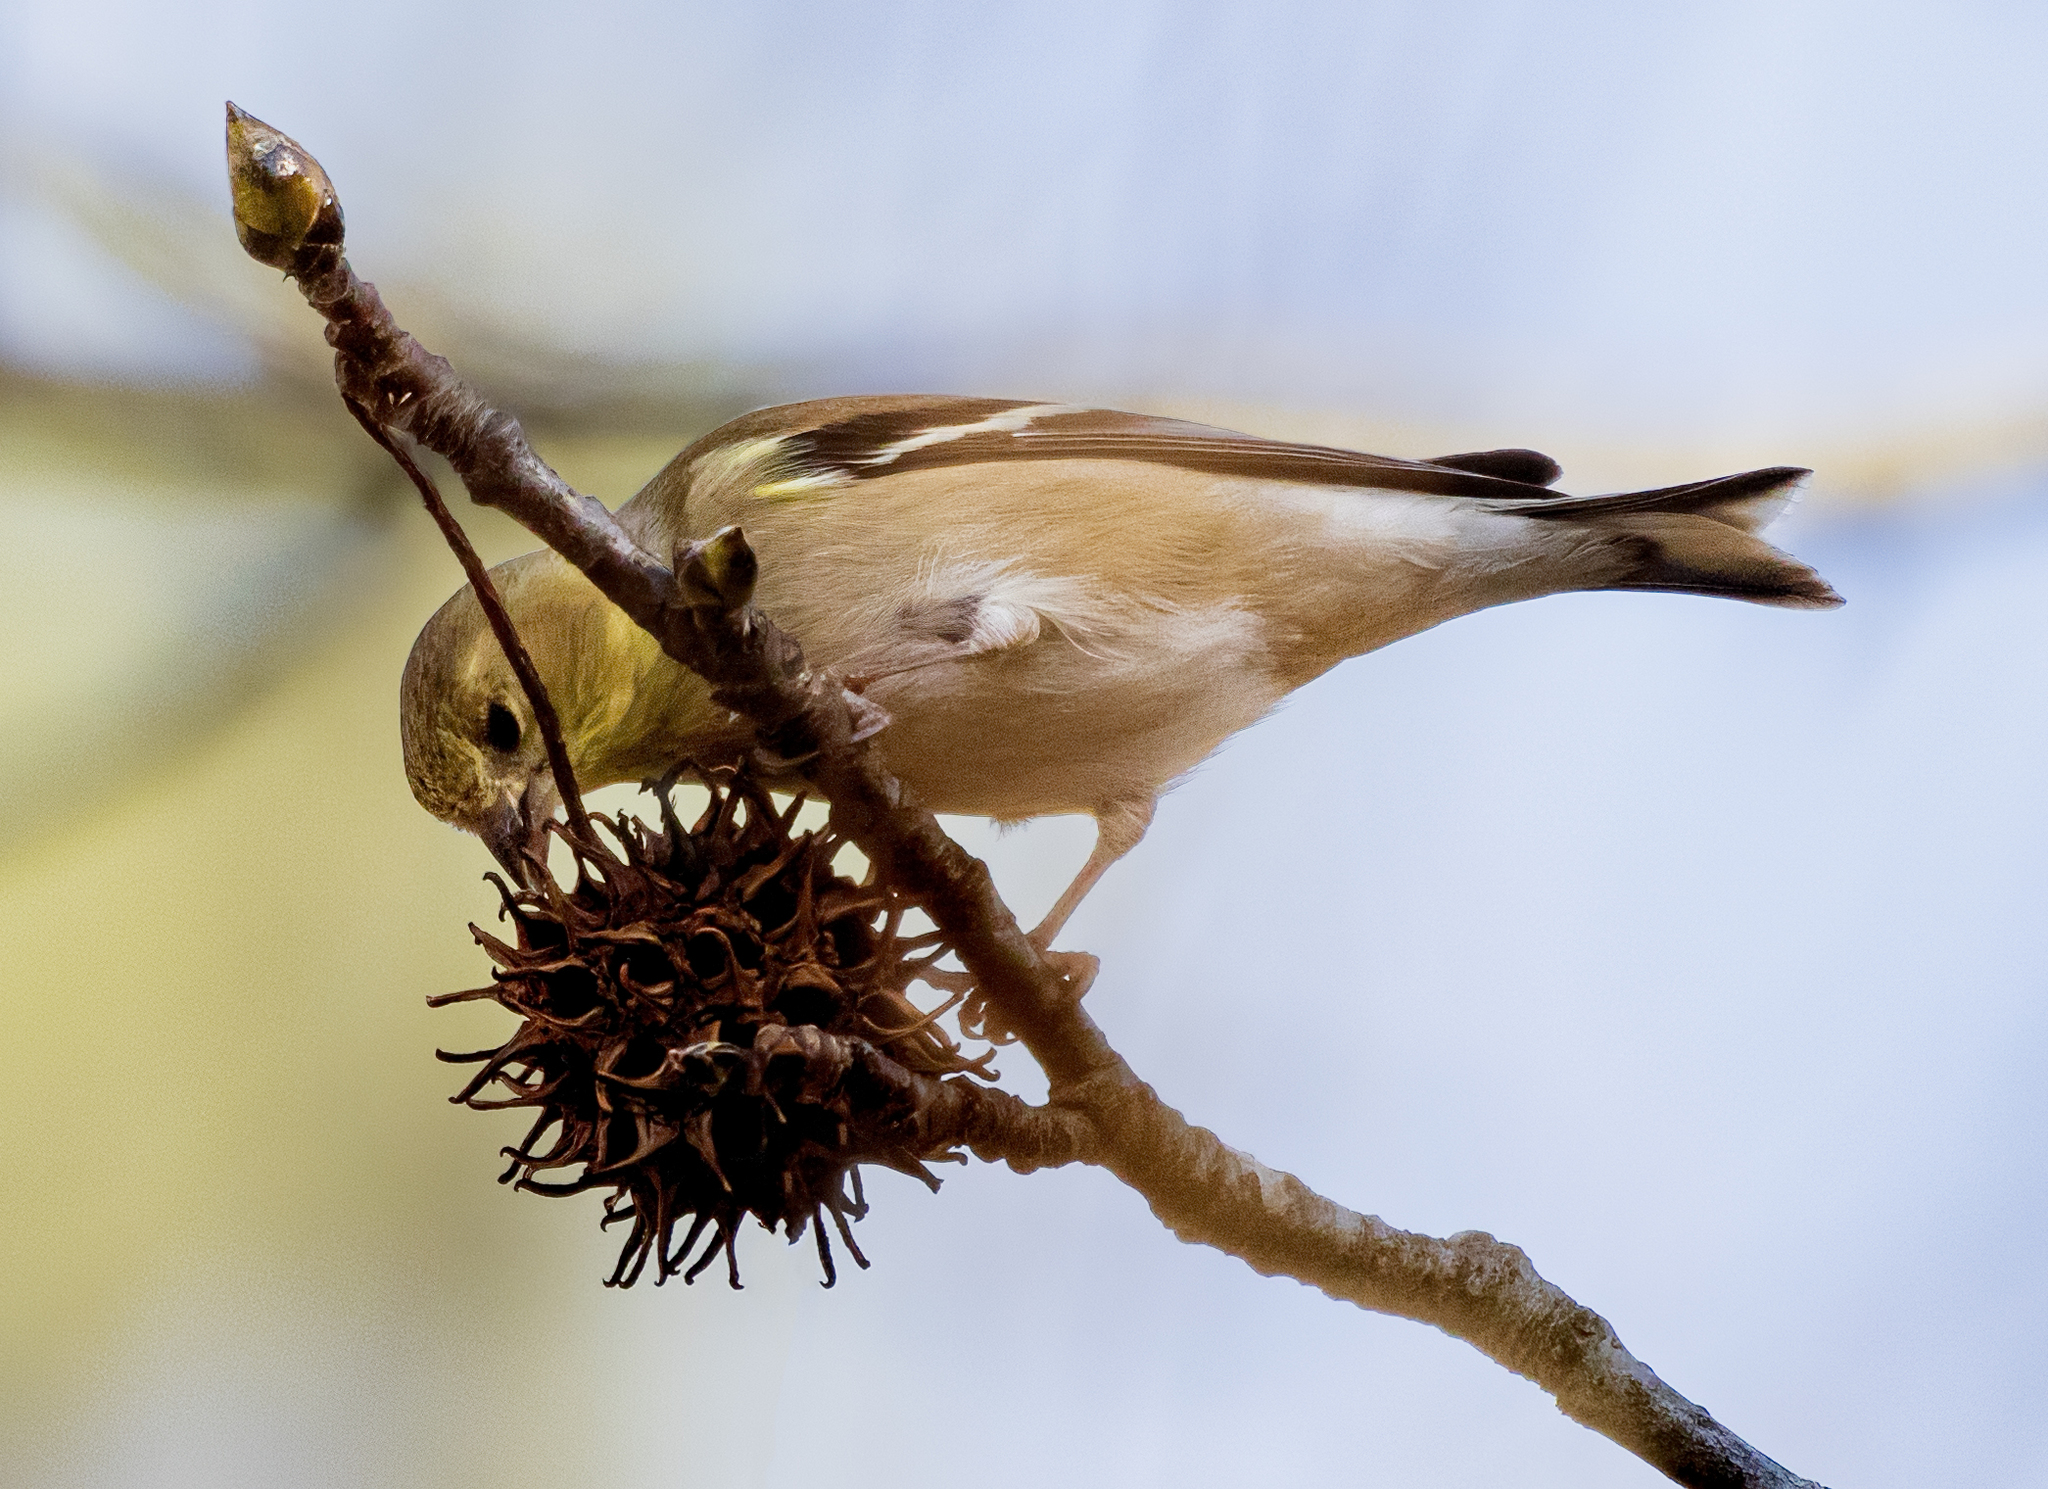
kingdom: Animalia
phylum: Chordata
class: Aves
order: Passeriformes
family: Fringillidae
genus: Spinus
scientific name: Spinus tristis
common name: American goldfinch
